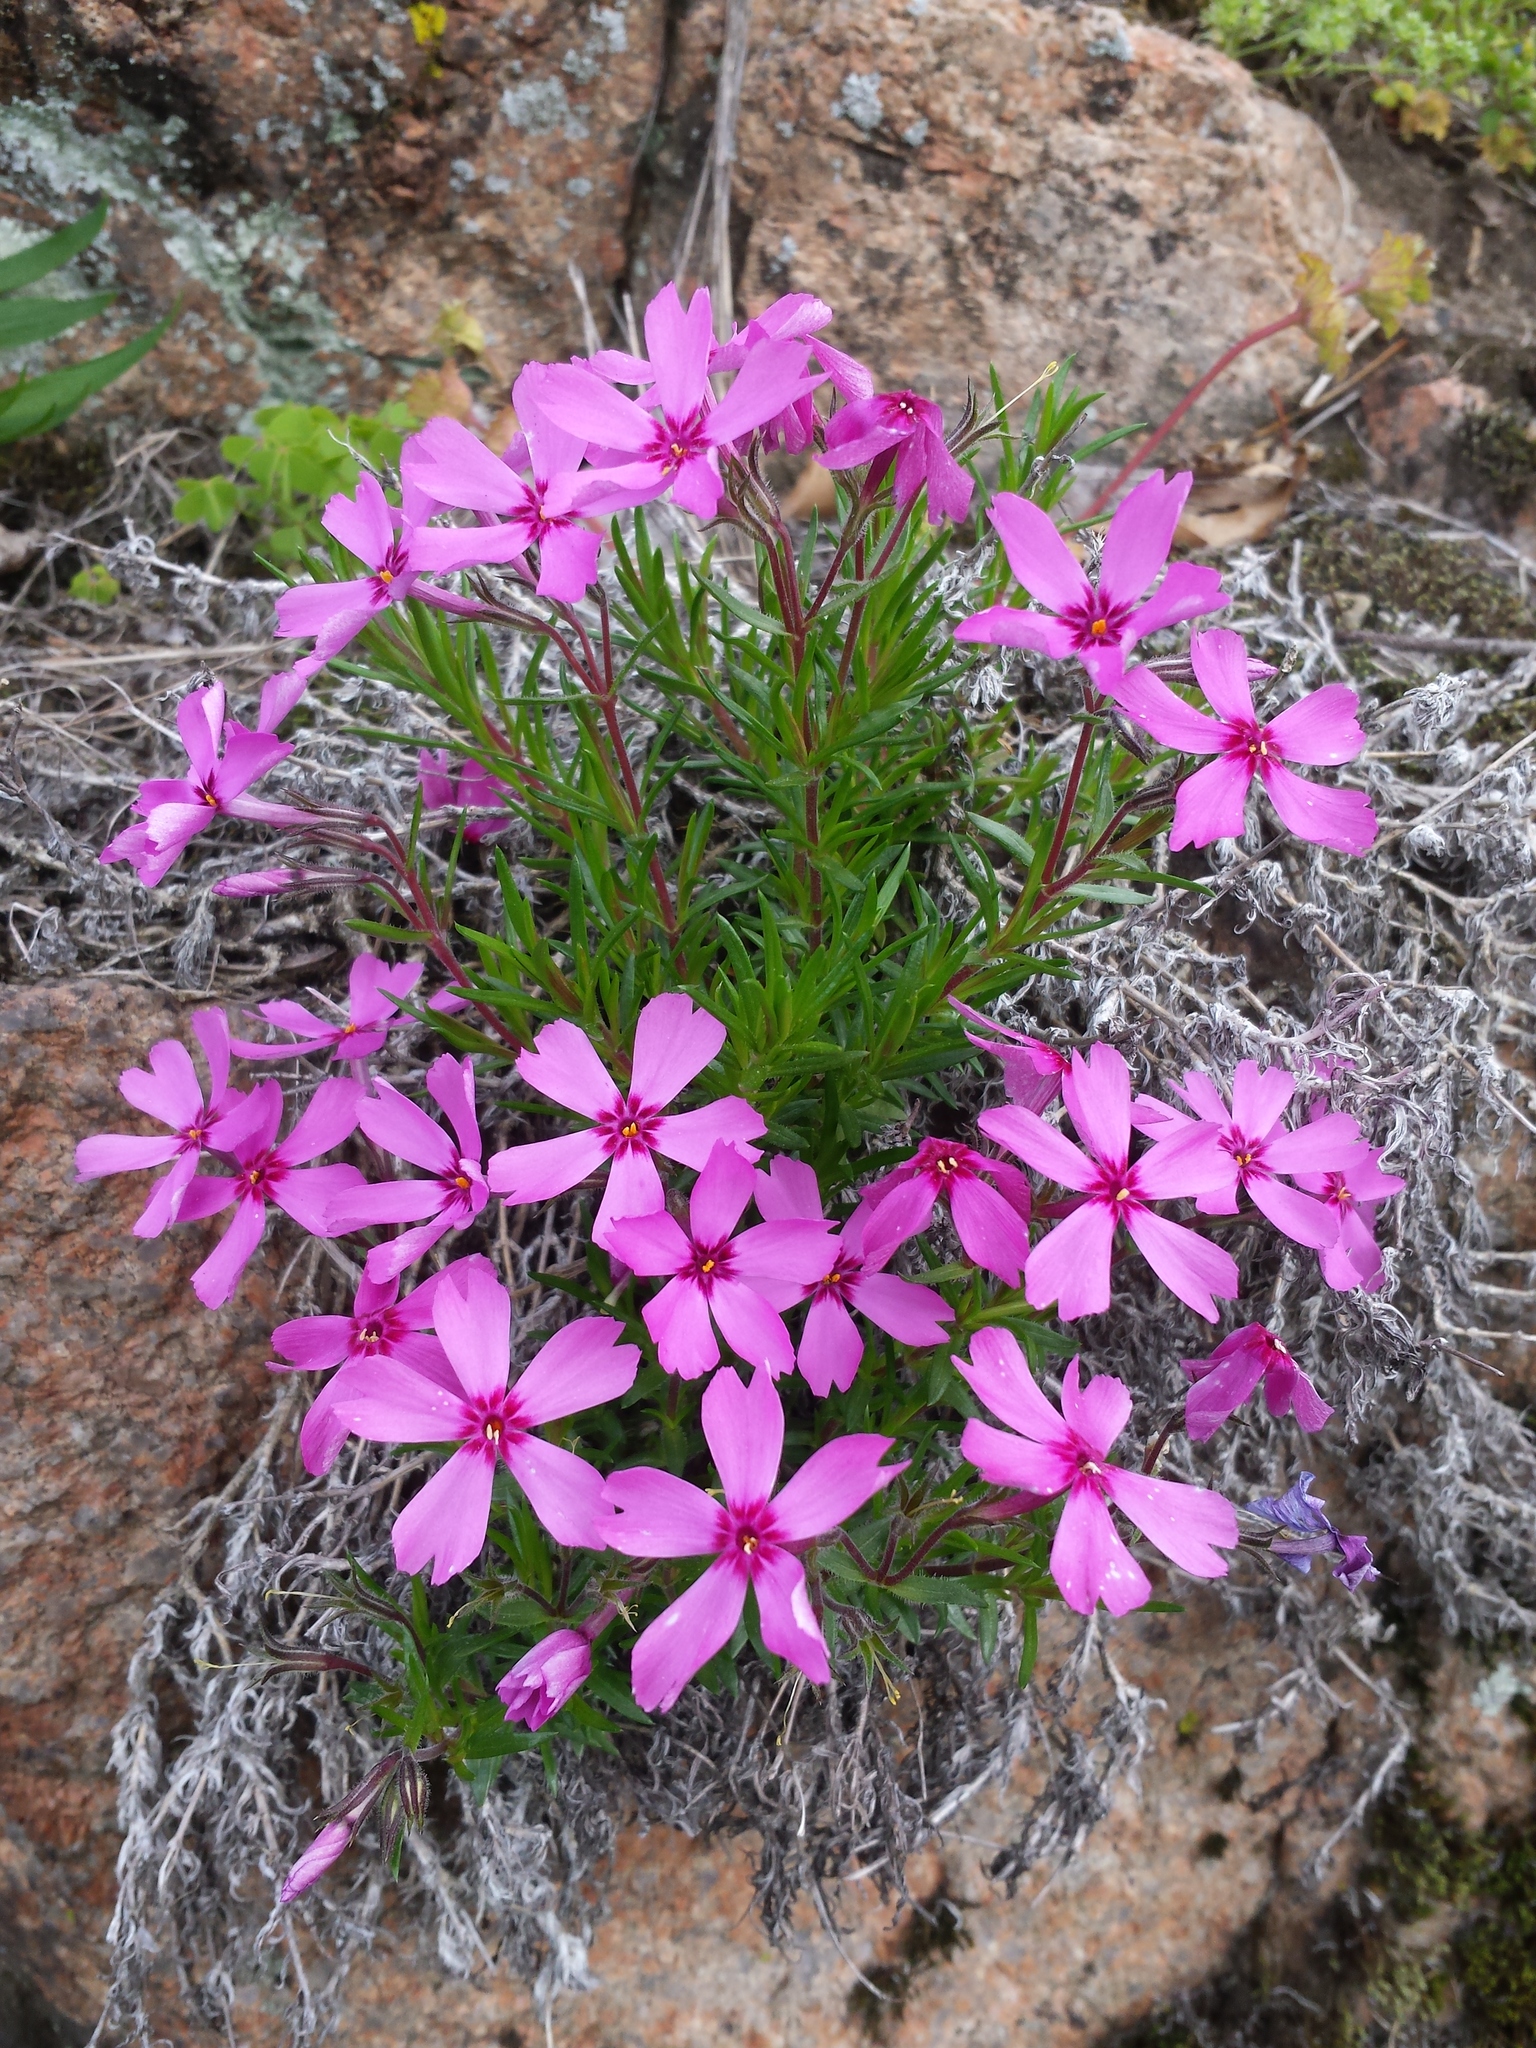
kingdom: Plantae
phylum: Tracheophyta
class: Magnoliopsida
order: Ericales
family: Polemoniaceae
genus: Phlox
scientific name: Phlox subulata
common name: Moss phlox
